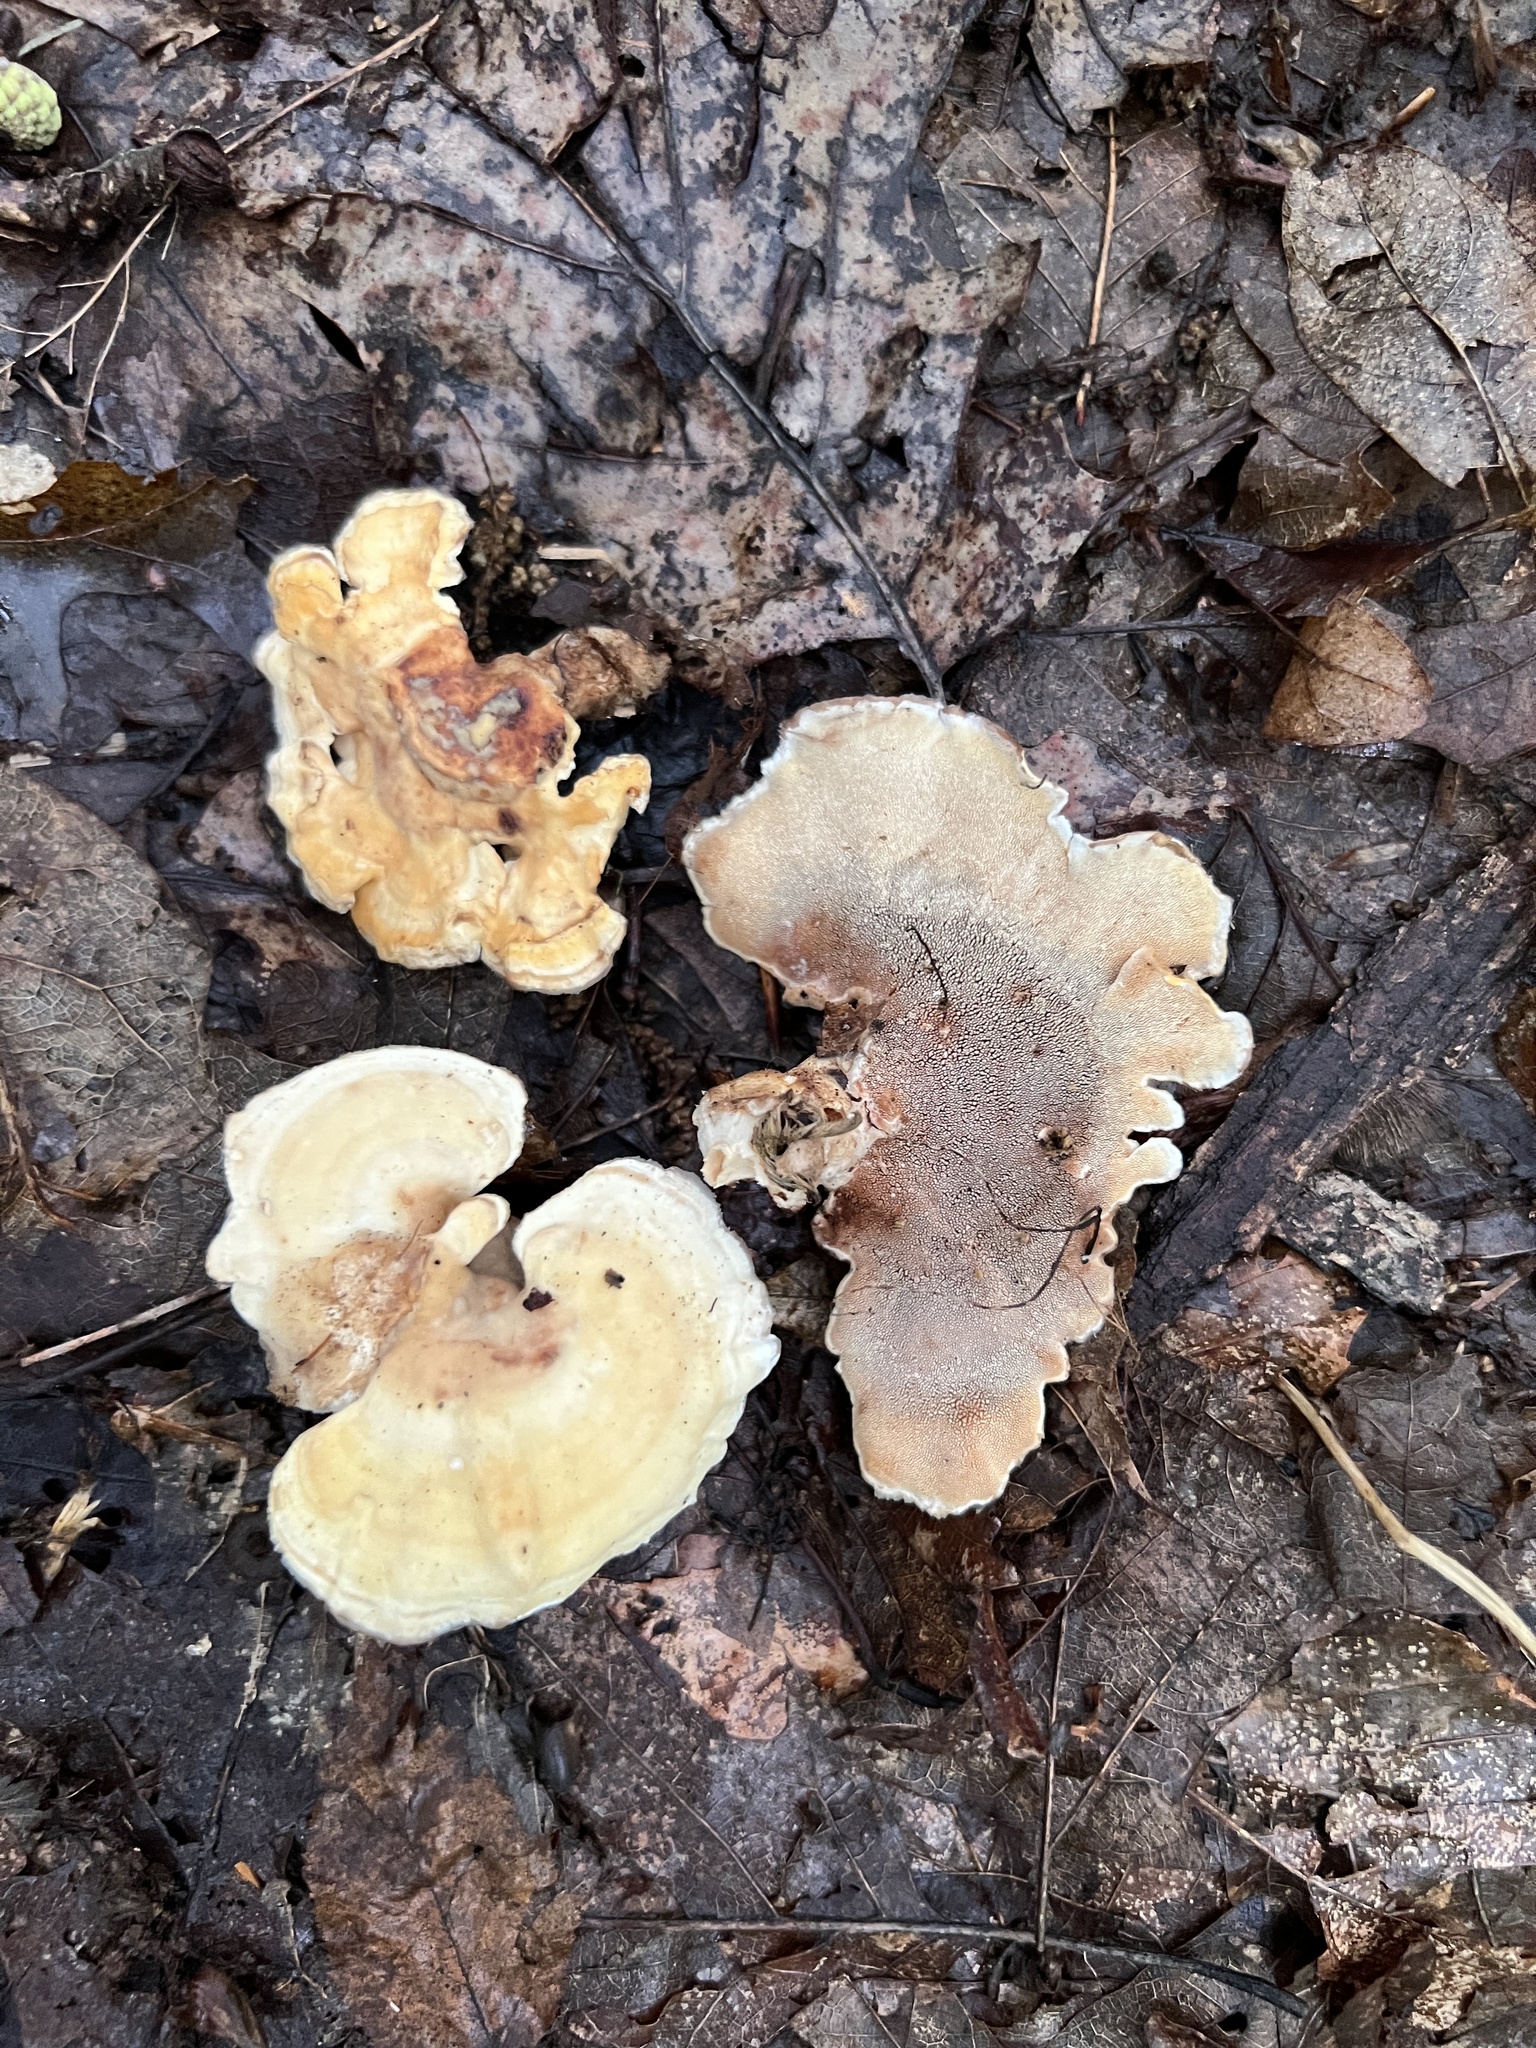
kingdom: Fungi
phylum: Basidiomycota
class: Agaricomycetes
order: Polyporales
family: Steccherinaceae
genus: Mycorrhaphium
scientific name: Mycorrhaphium adustum
